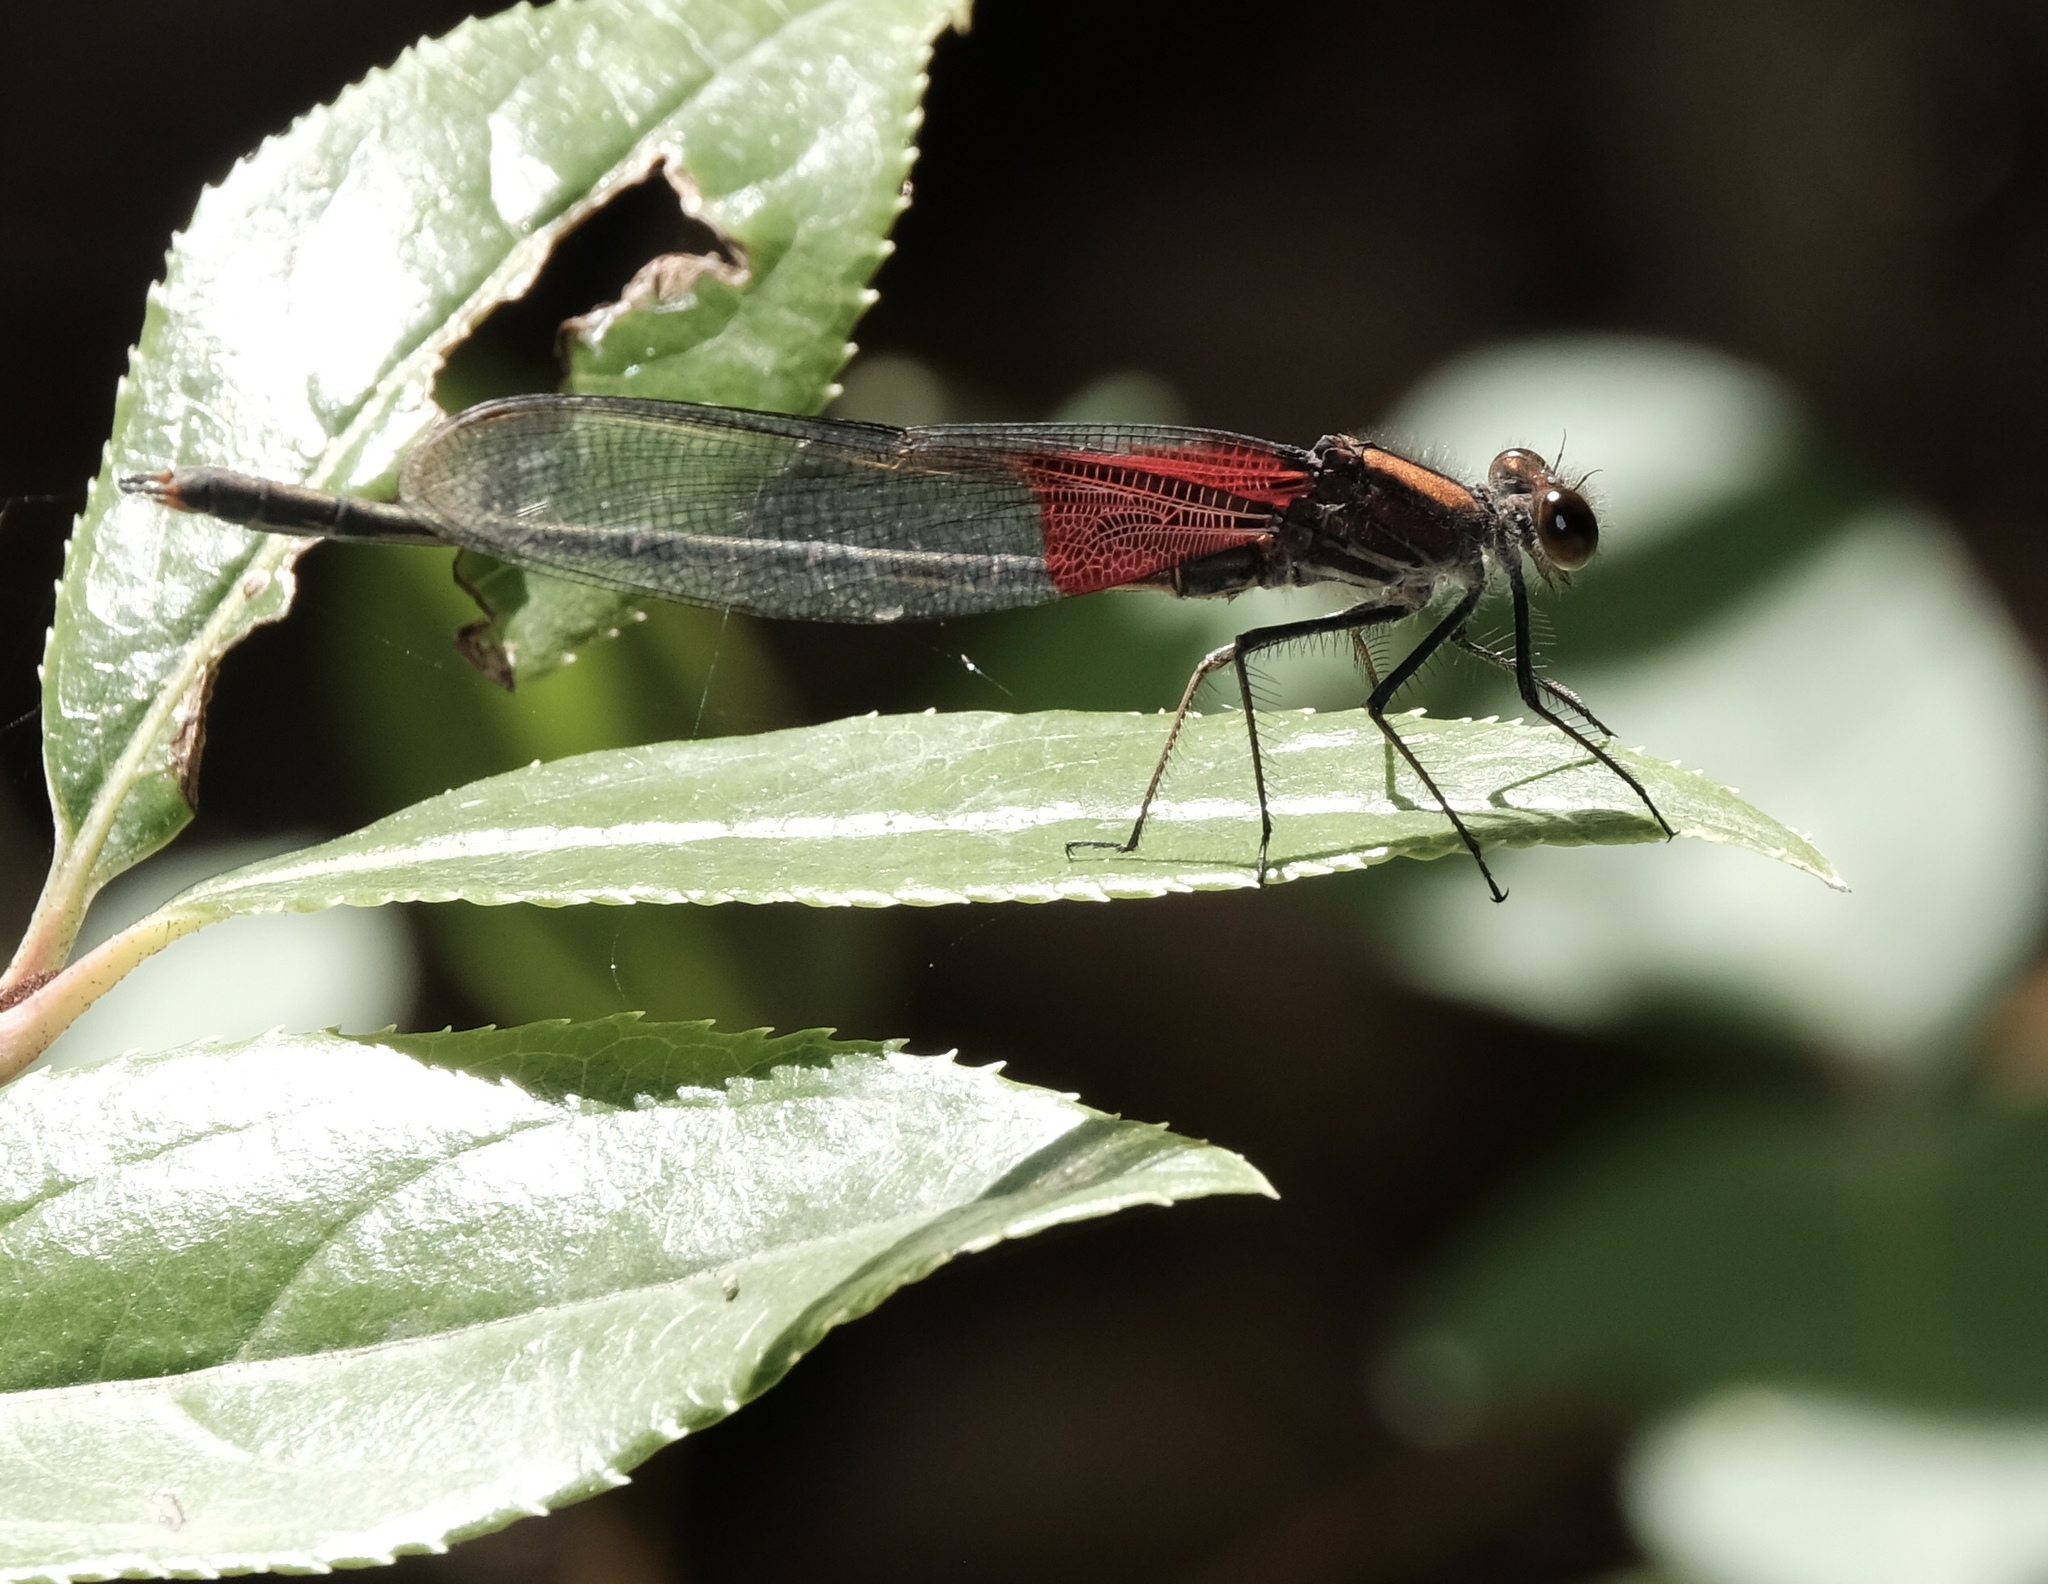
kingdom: Animalia
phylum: Arthropoda
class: Insecta
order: Odonata
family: Calopterygidae
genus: Hetaerina
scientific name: Hetaerina americana
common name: American rubyspot
